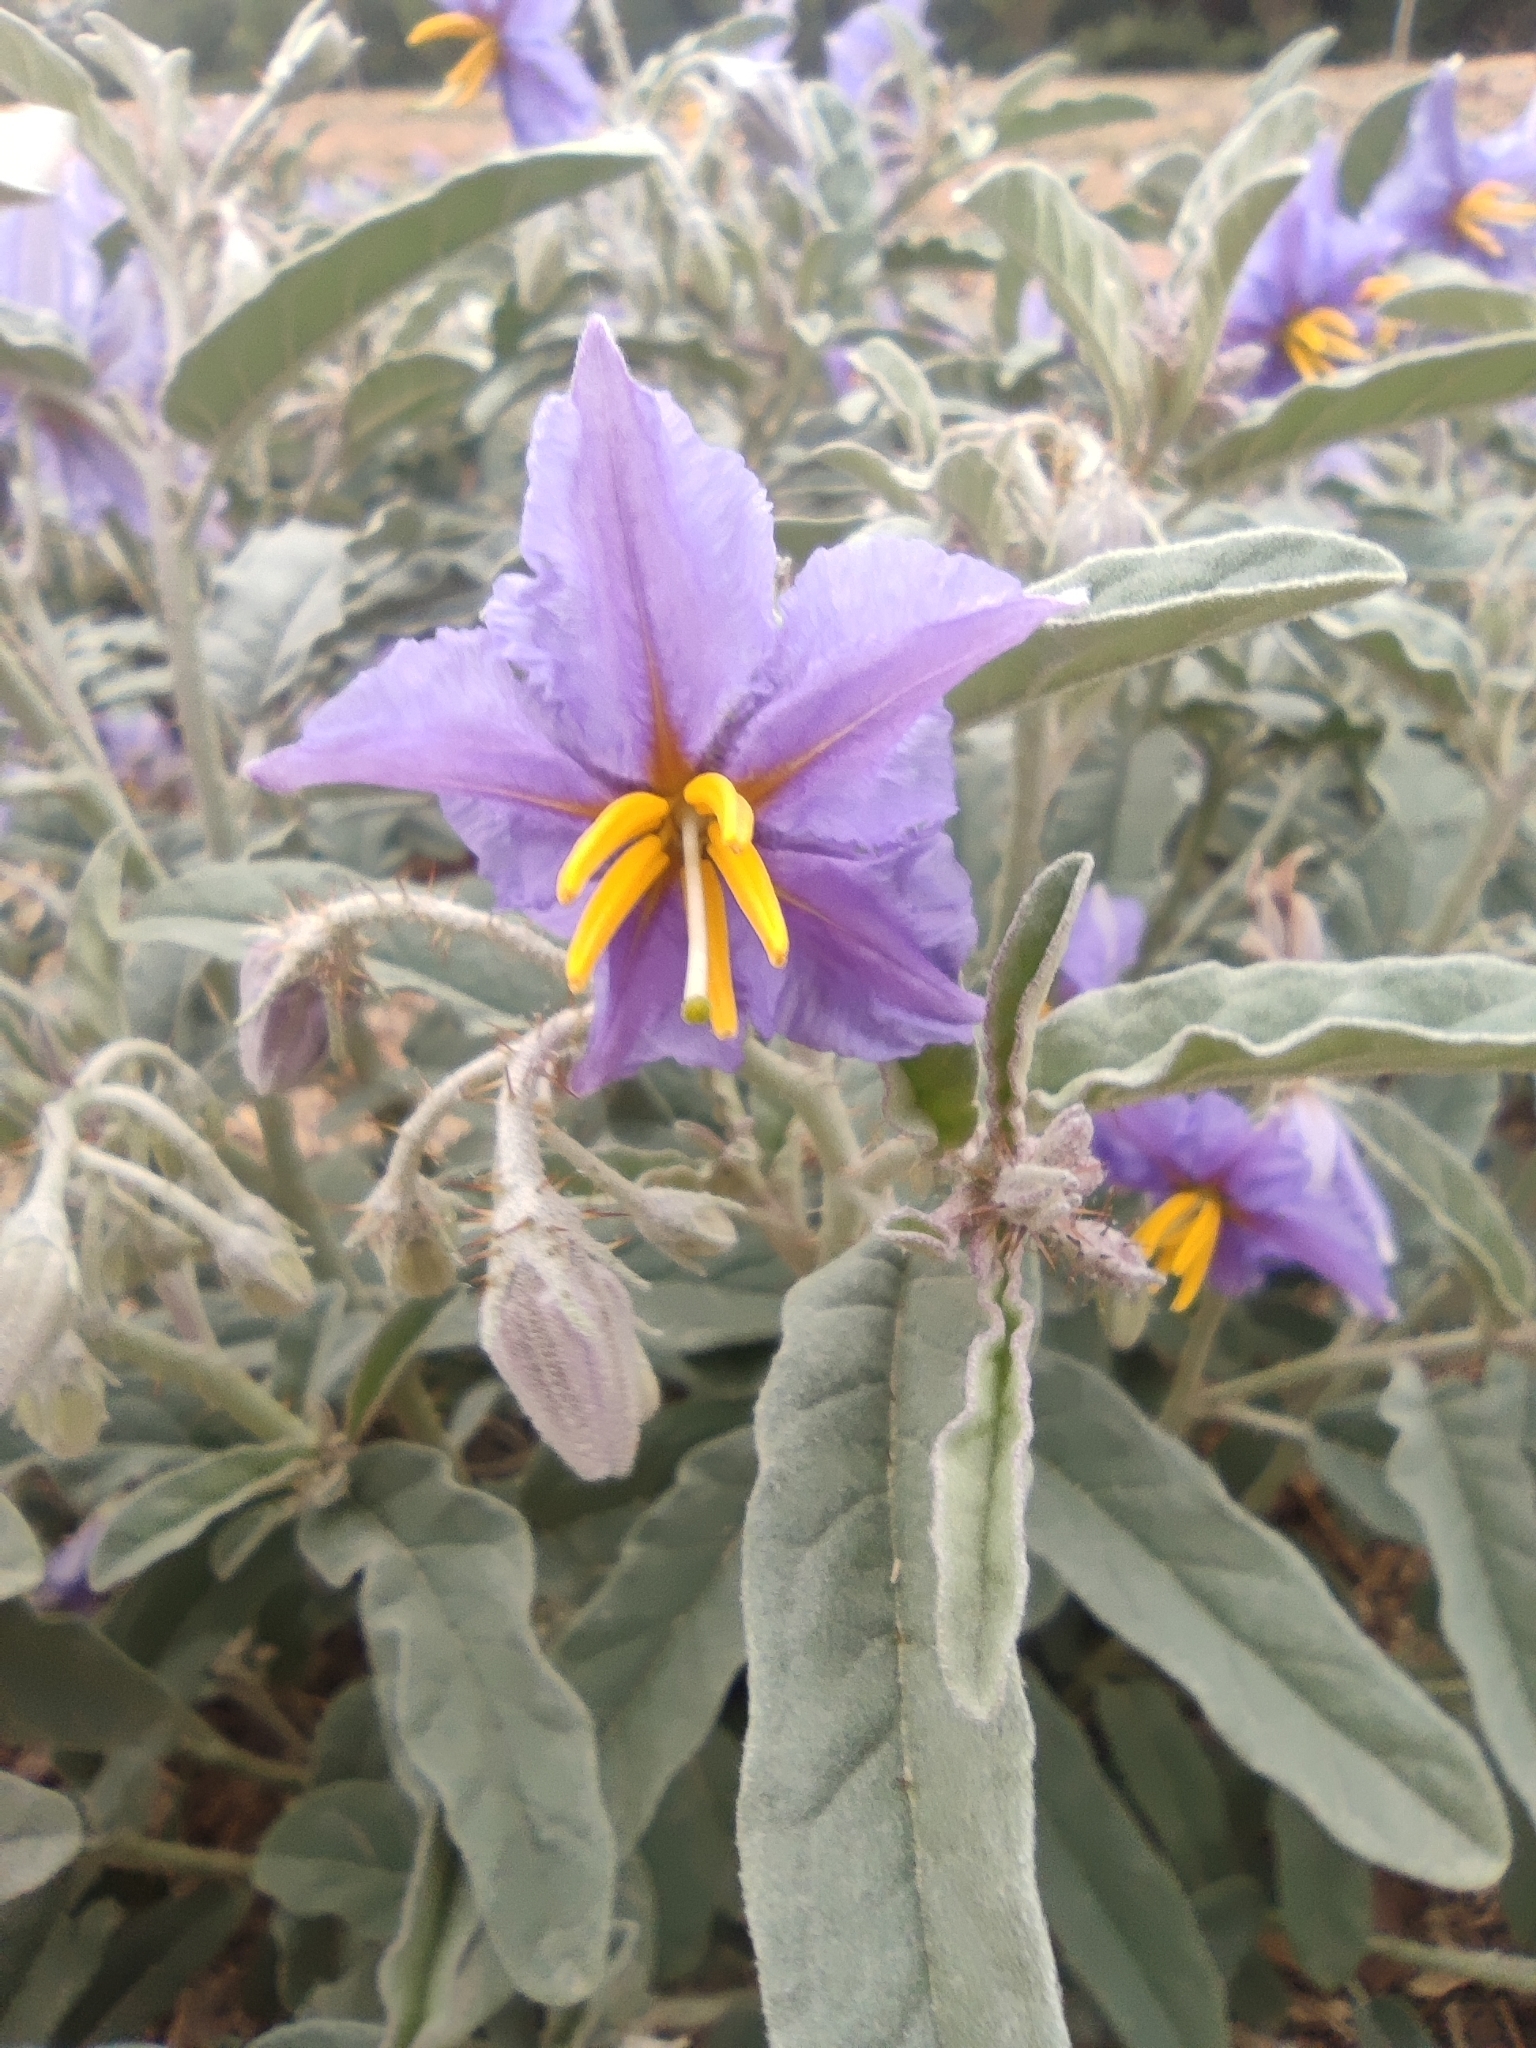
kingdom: Plantae
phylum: Tracheophyta
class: Magnoliopsida
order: Solanales
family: Solanaceae
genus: Solanum
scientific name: Solanum elaeagnifolium
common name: Silverleaf nightshade
